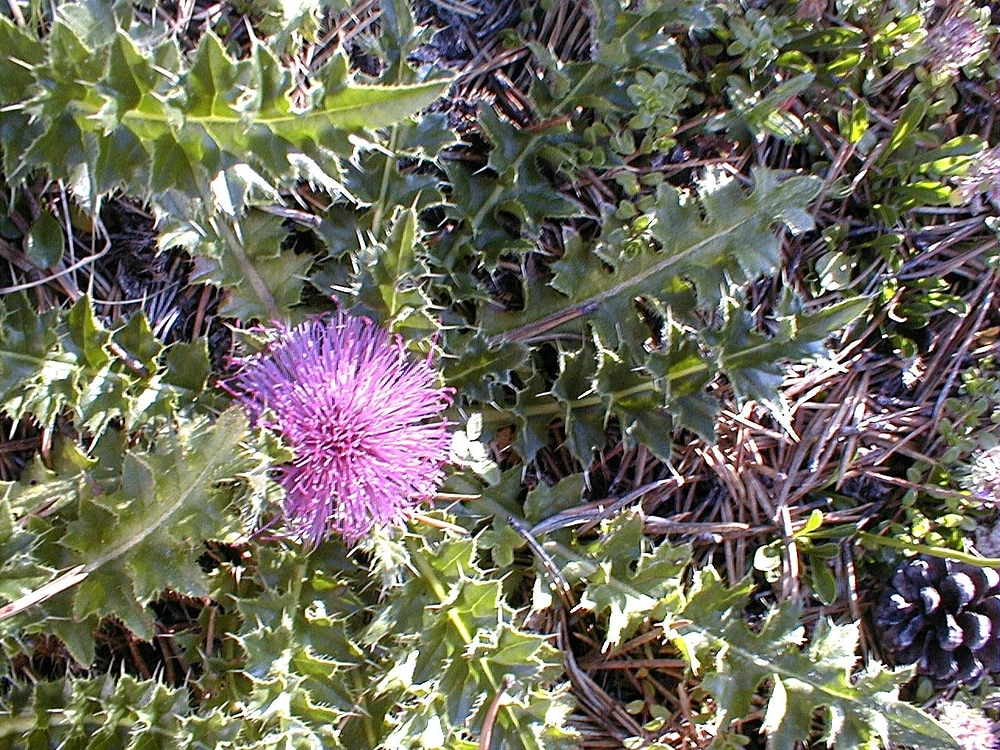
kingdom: Plantae
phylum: Tracheophyta
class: Magnoliopsida
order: Asterales
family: Asteraceae
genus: Cirsium
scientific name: Cirsium acaulon
